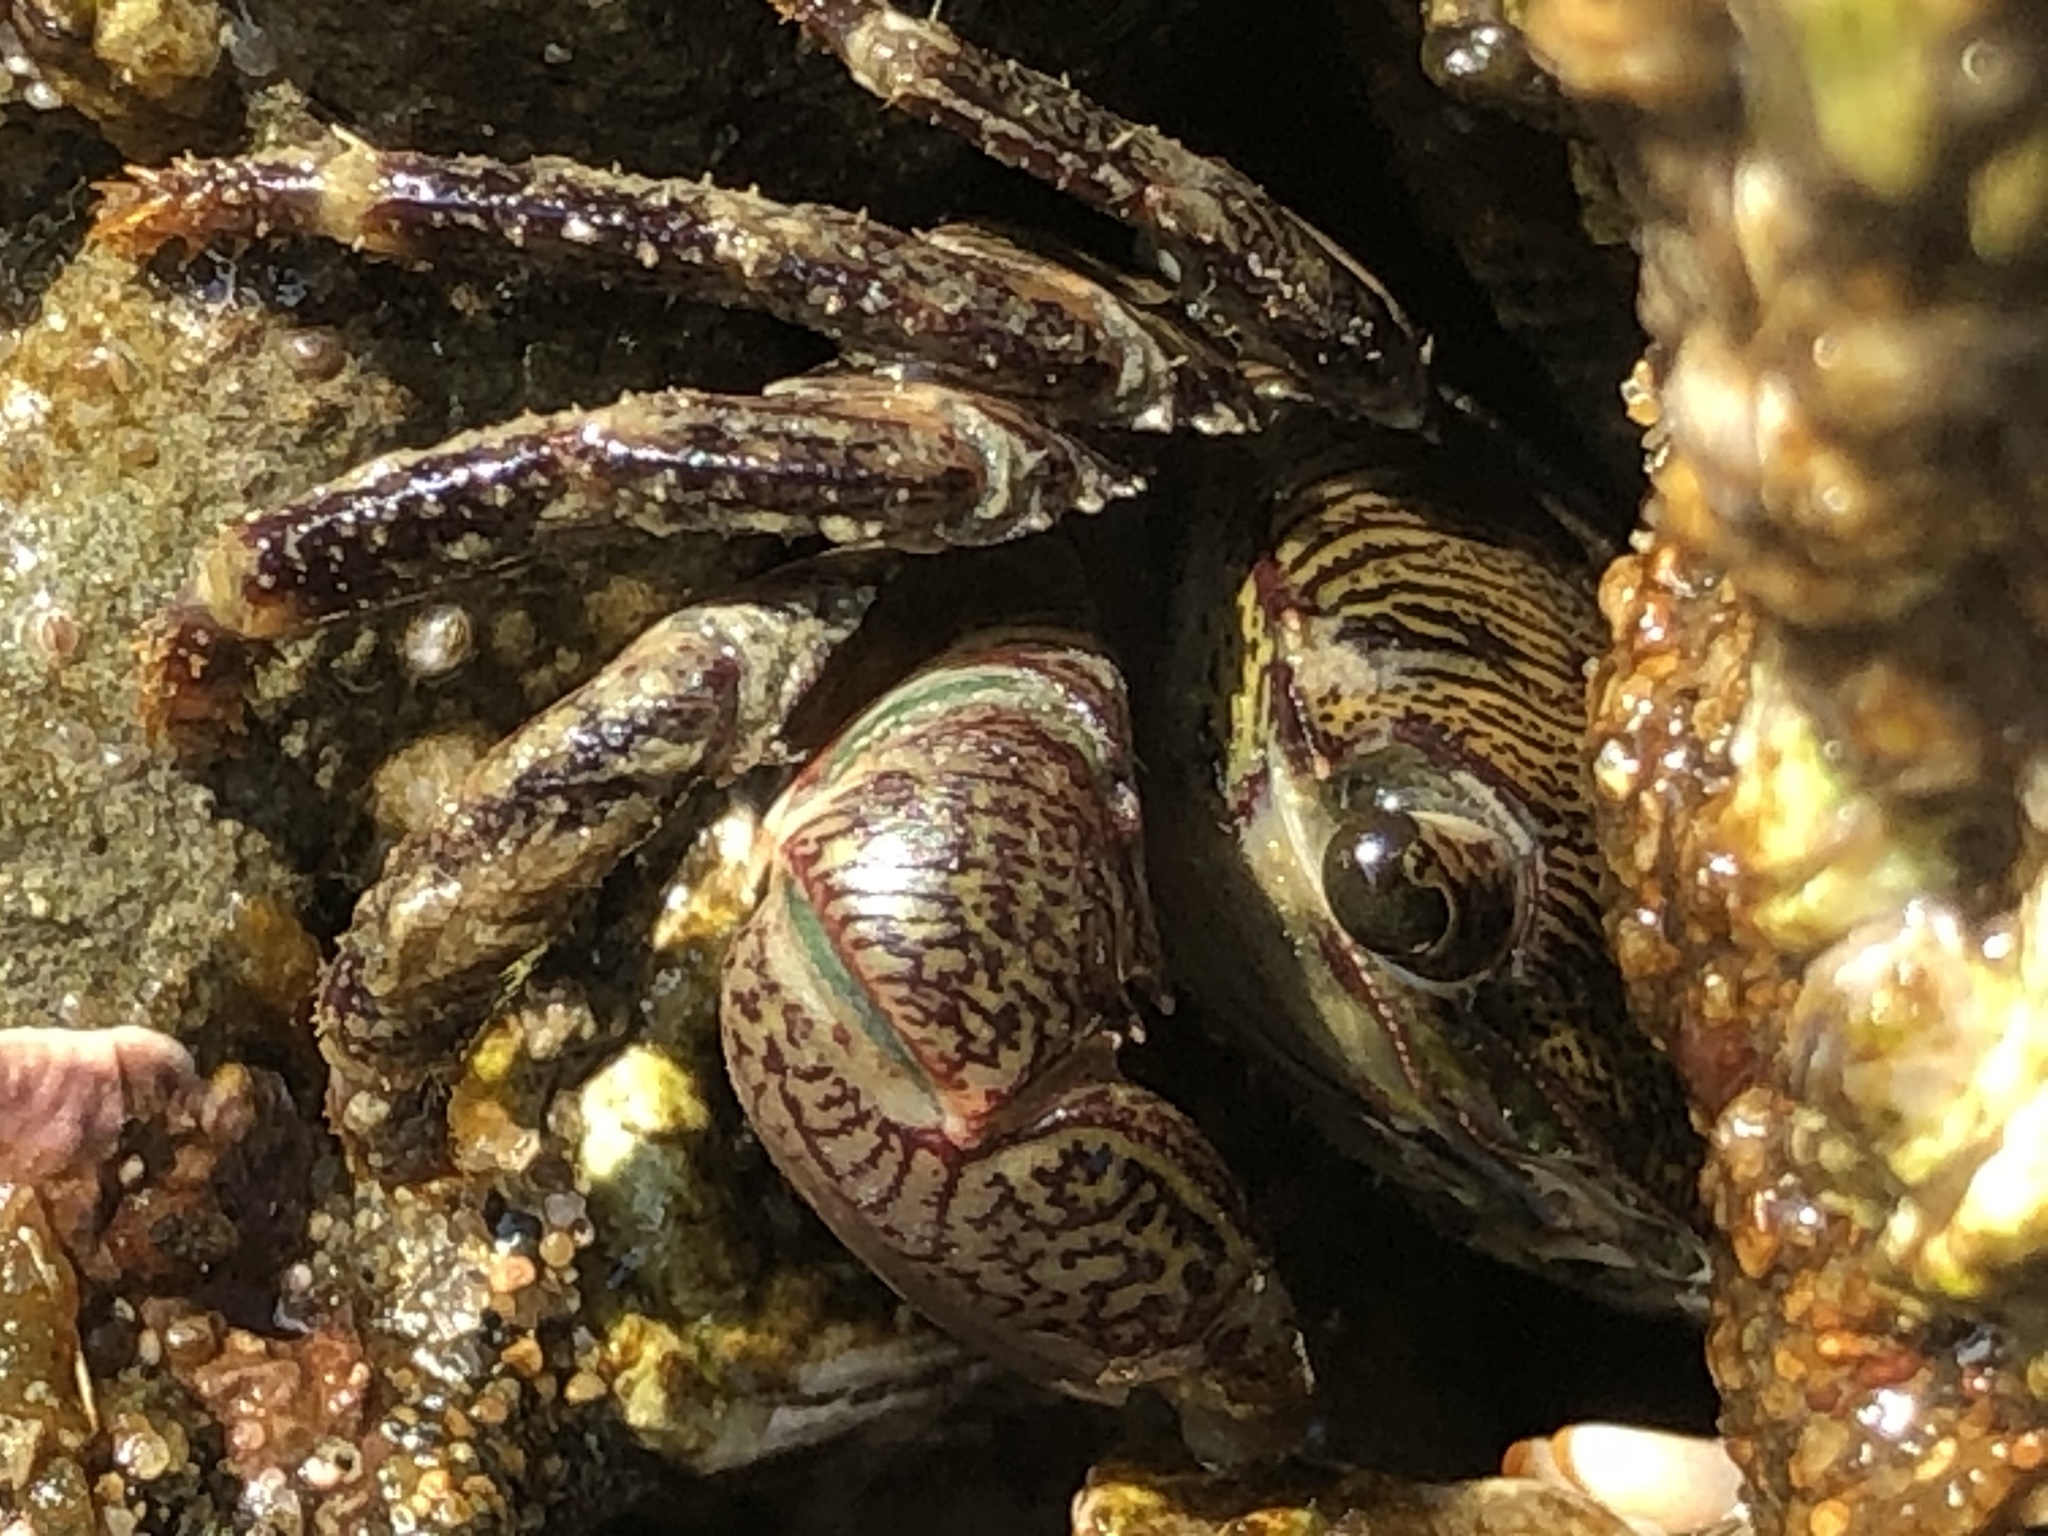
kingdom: Animalia
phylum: Arthropoda
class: Malacostraca
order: Decapoda
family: Grapsidae
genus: Pachygrapsus
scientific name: Pachygrapsus crassipes
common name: Striped shore crab
